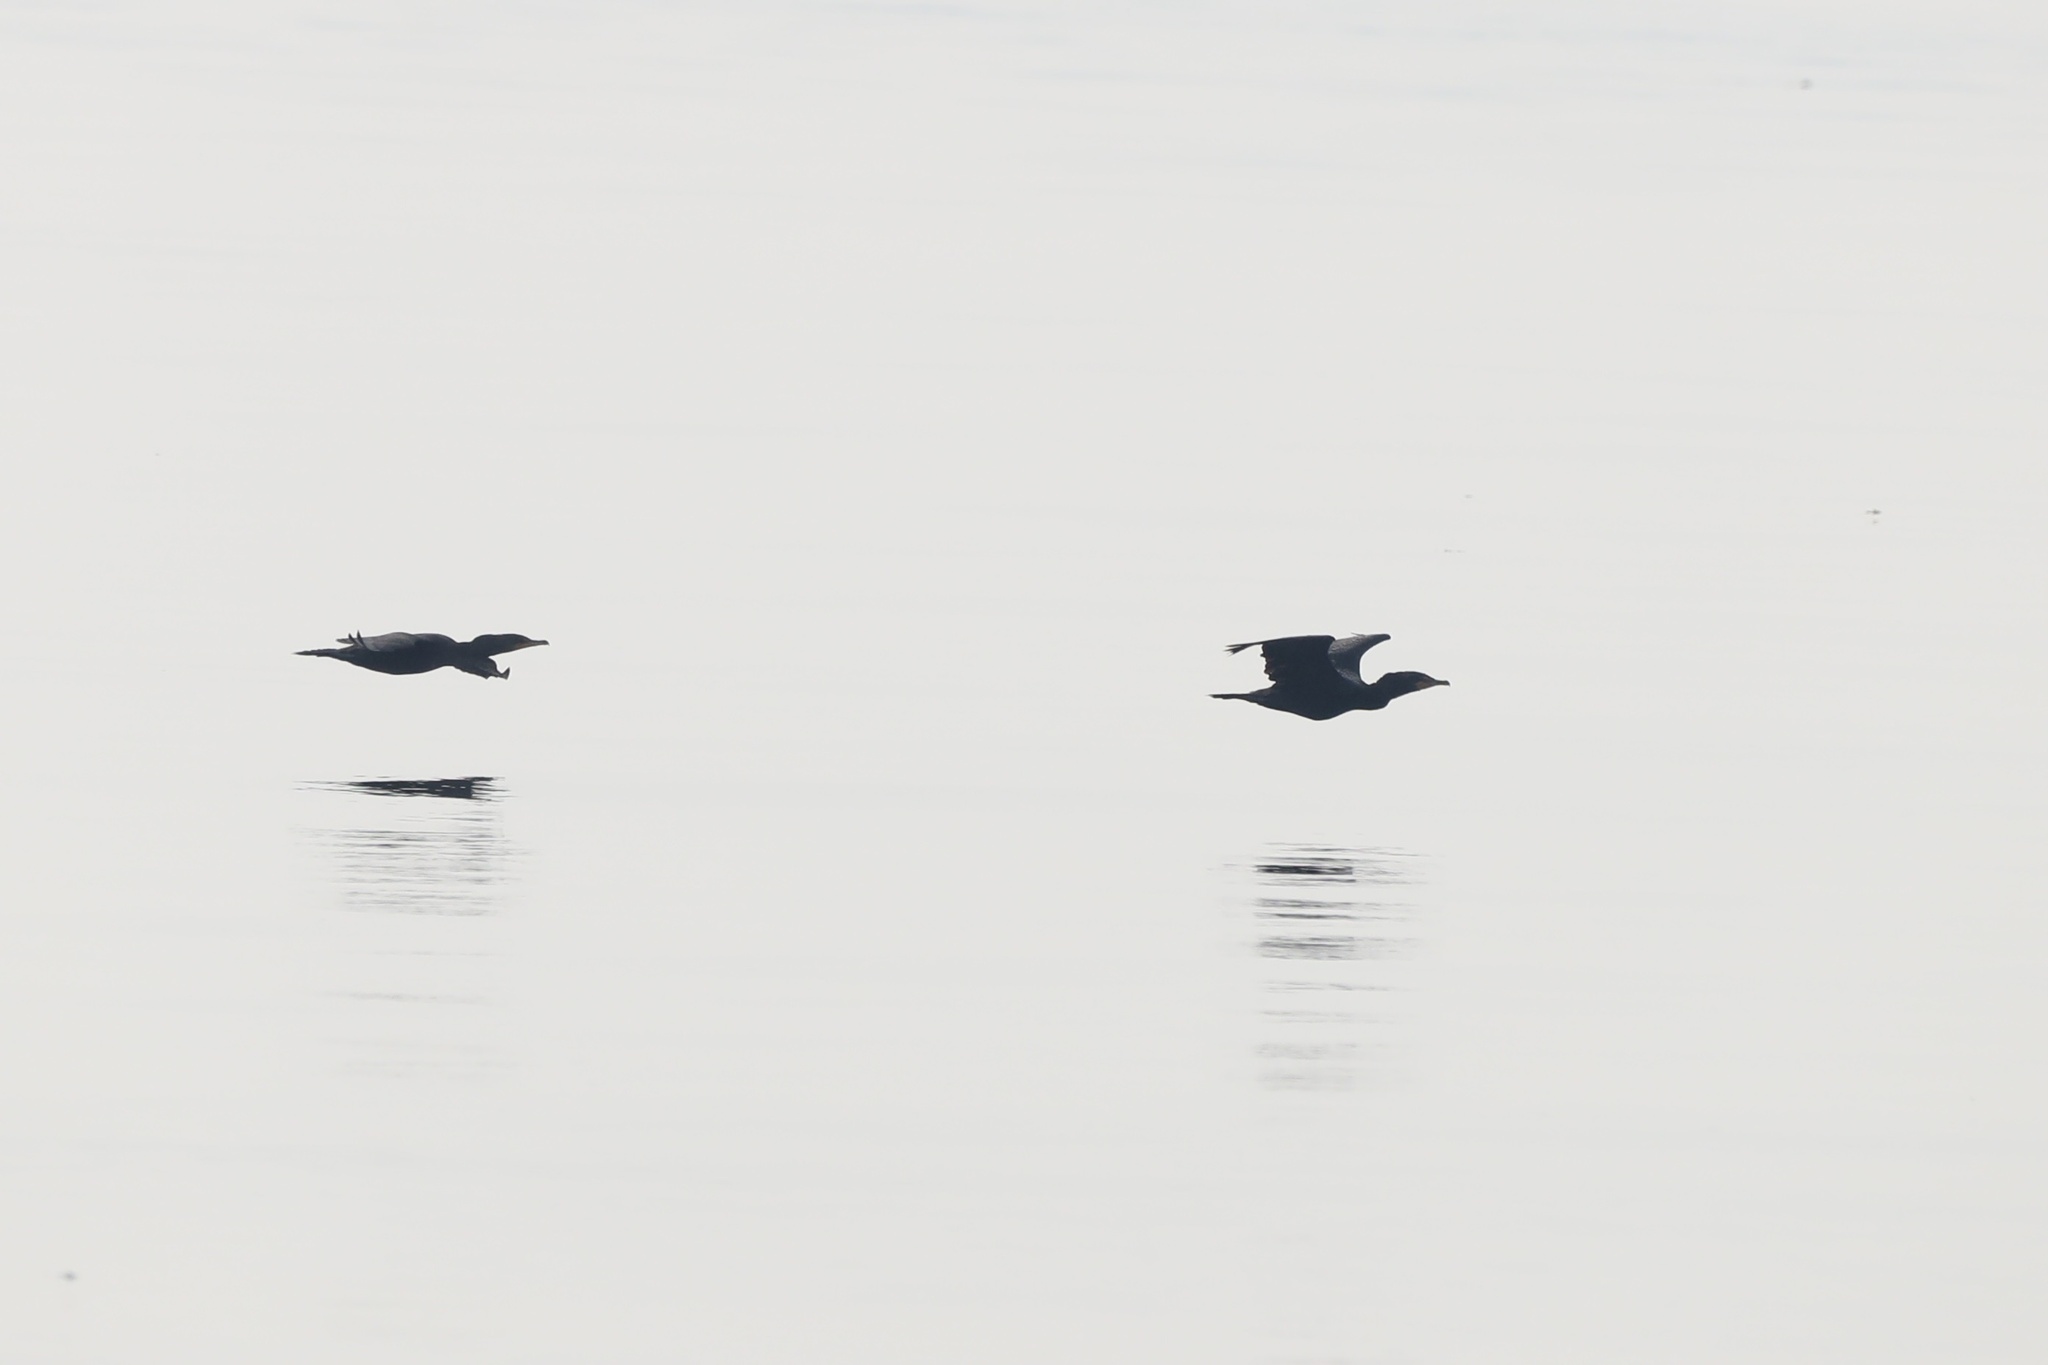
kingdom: Animalia
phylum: Chordata
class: Aves
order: Suliformes
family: Phalacrocoracidae
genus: Phalacrocorax
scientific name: Phalacrocorax auritus
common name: Double-crested cormorant
